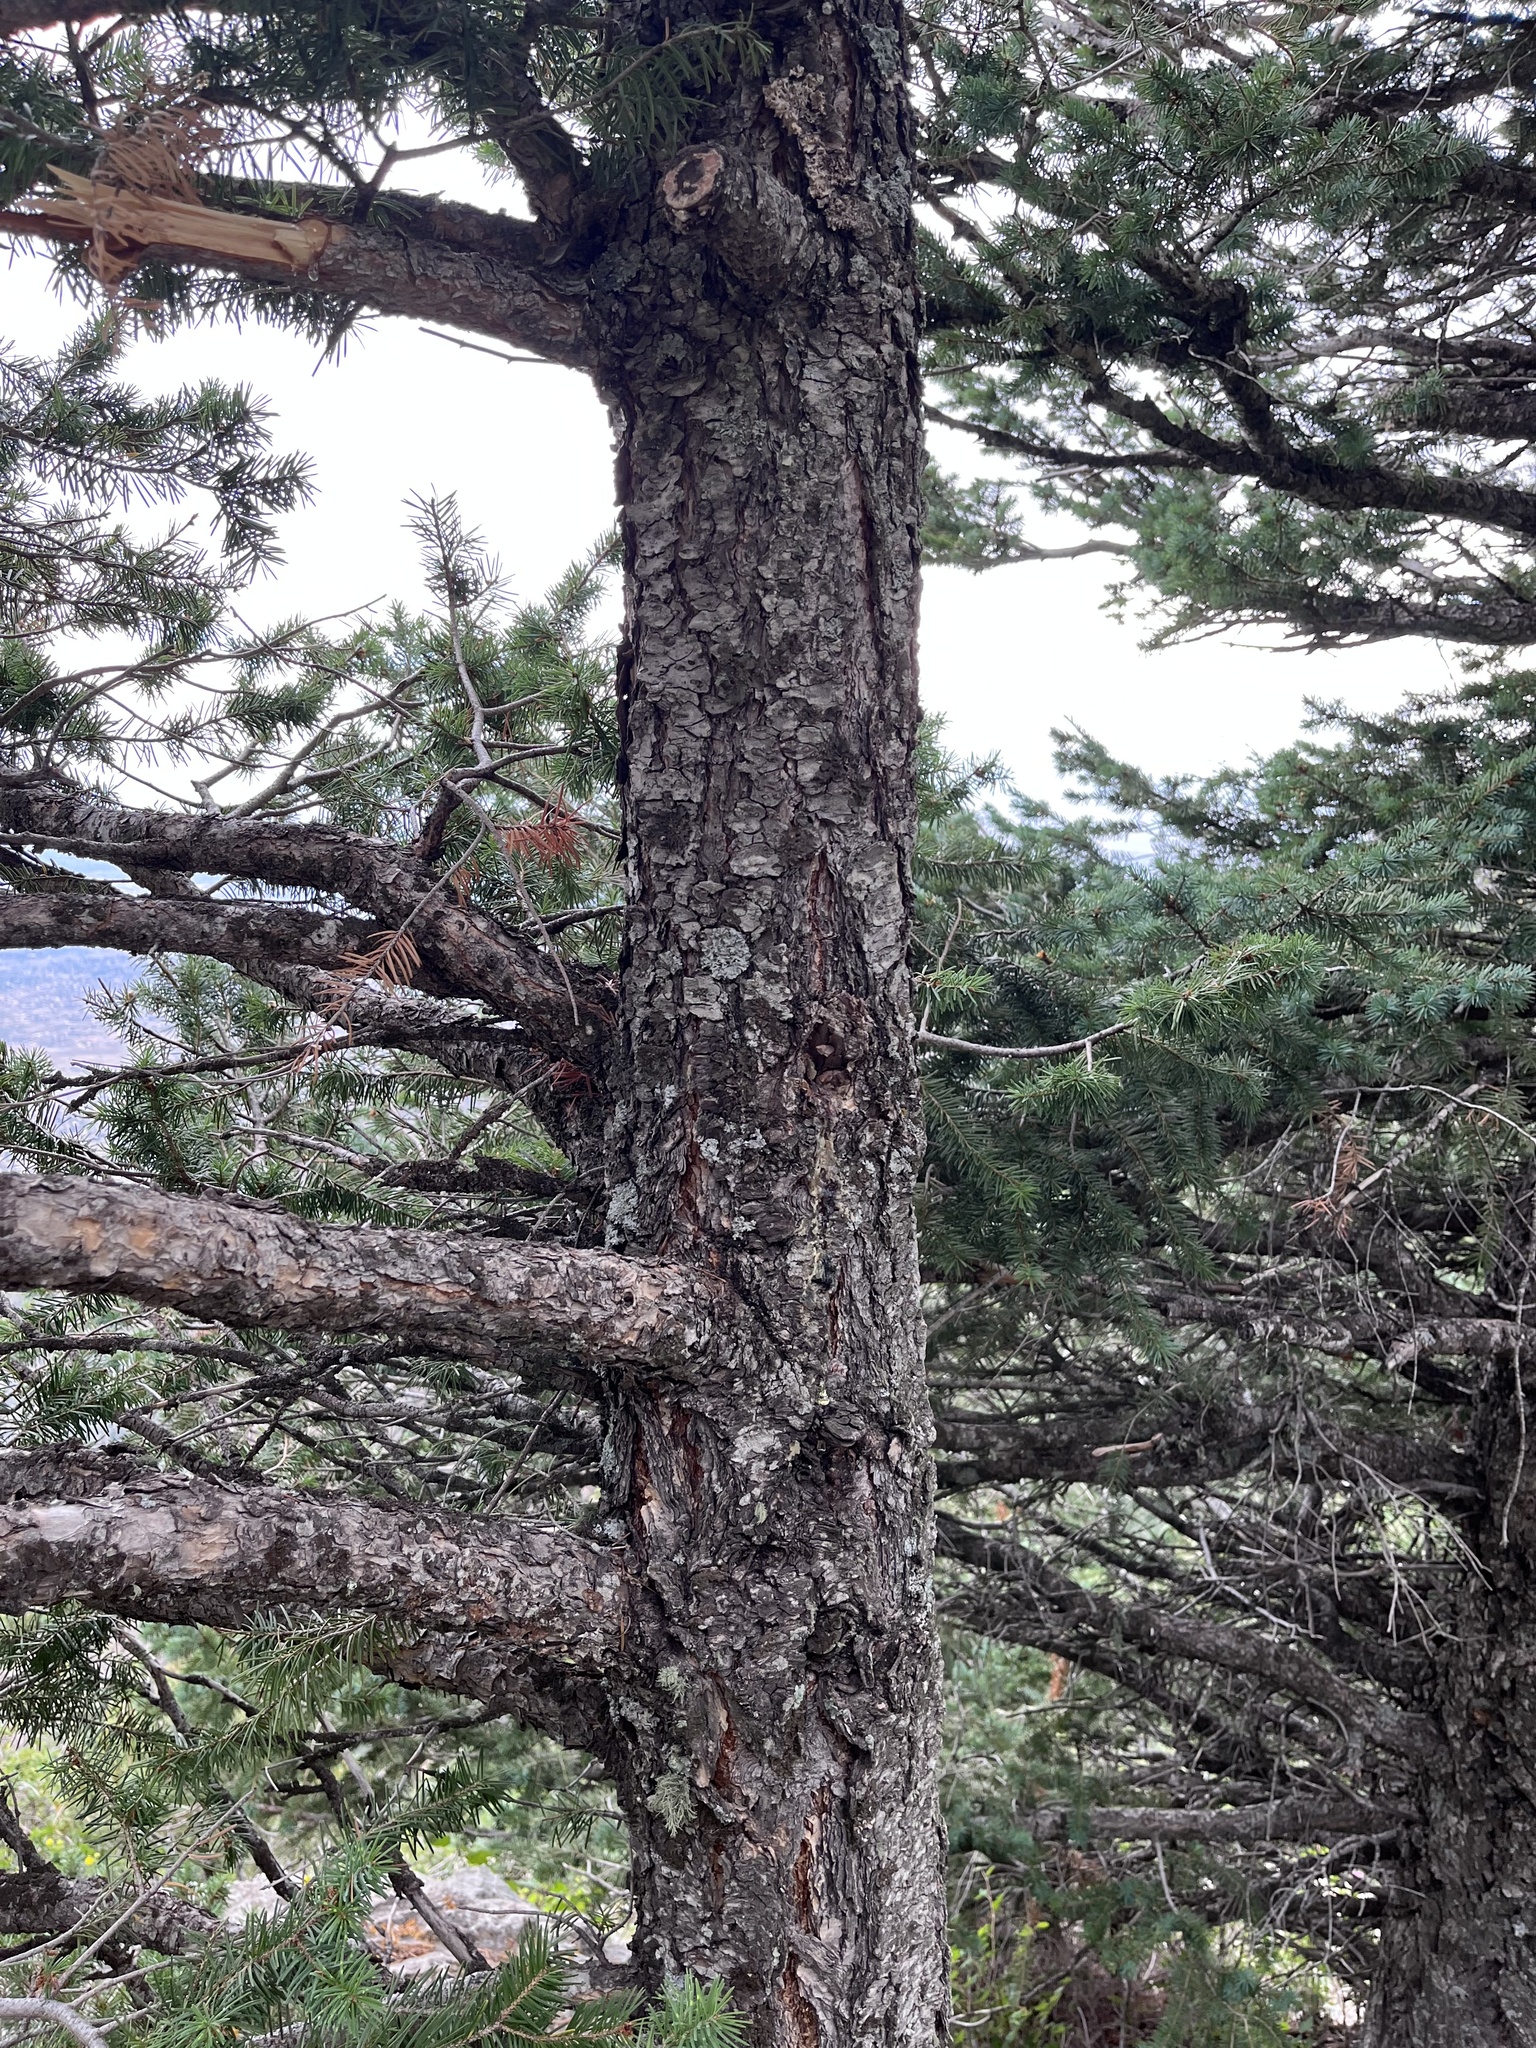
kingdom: Plantae
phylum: Tracheophyta
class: Pinopsida
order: Pinales
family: Pinaceae
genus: Pseudotsuga
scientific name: Pseudotsuga menziesii
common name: Douglas fir
